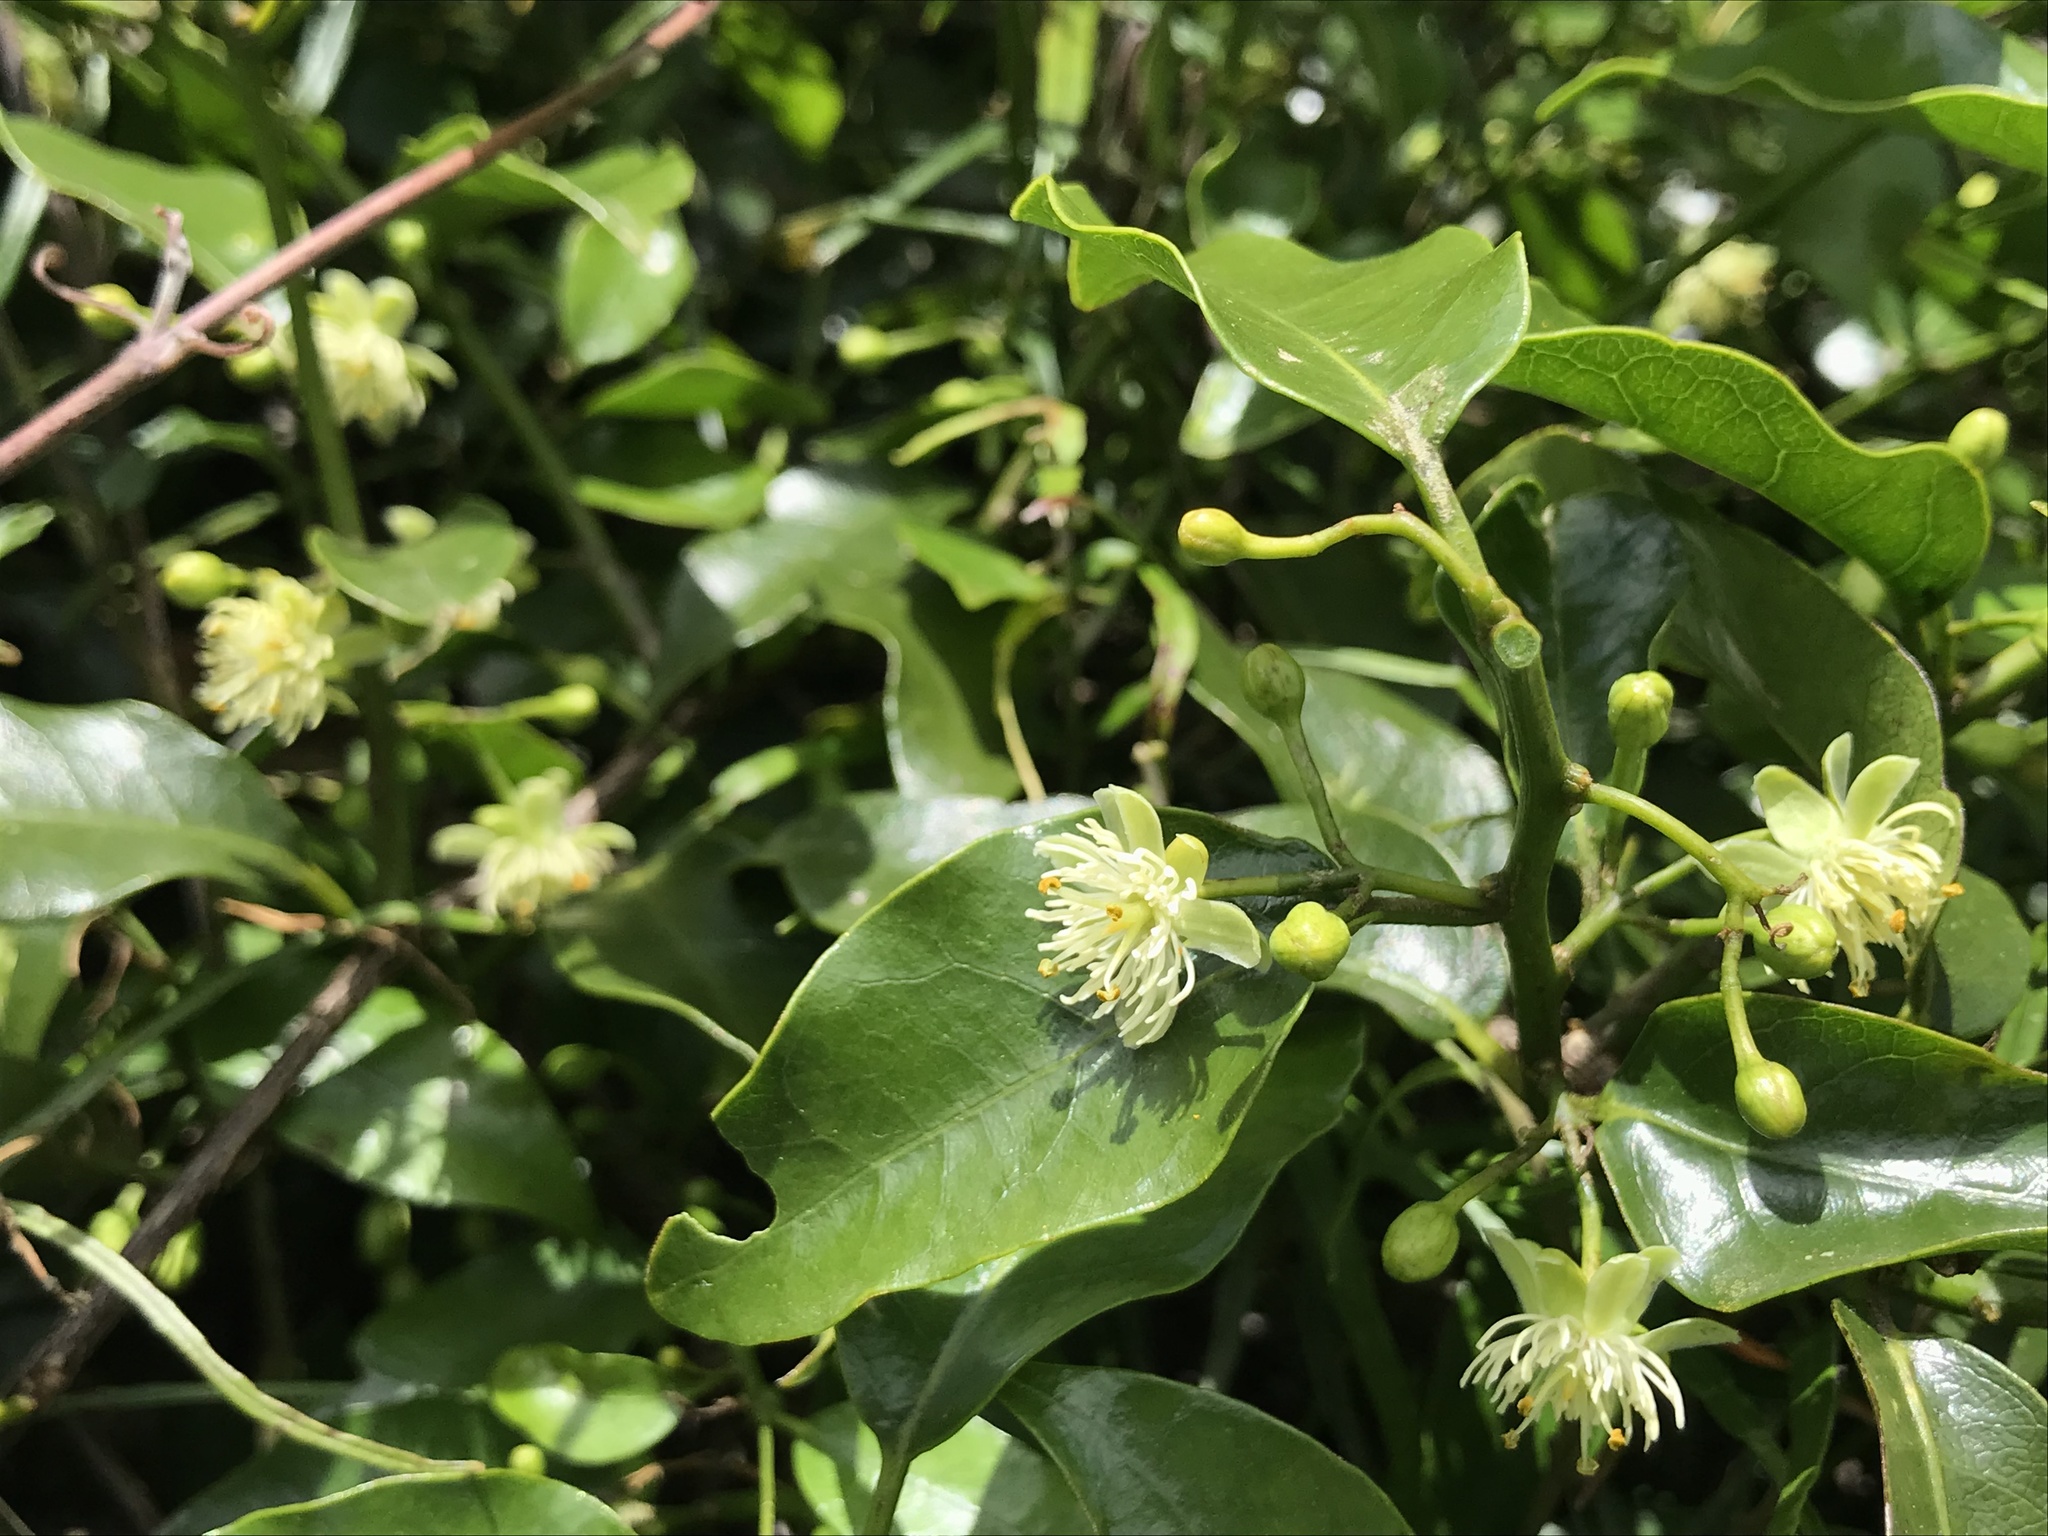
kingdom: Plantae
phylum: Tracheophyta
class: Magnoliopsida
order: Malpighiales
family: Passifloraceae
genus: Passiflora
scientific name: Passiflora tetrandra
